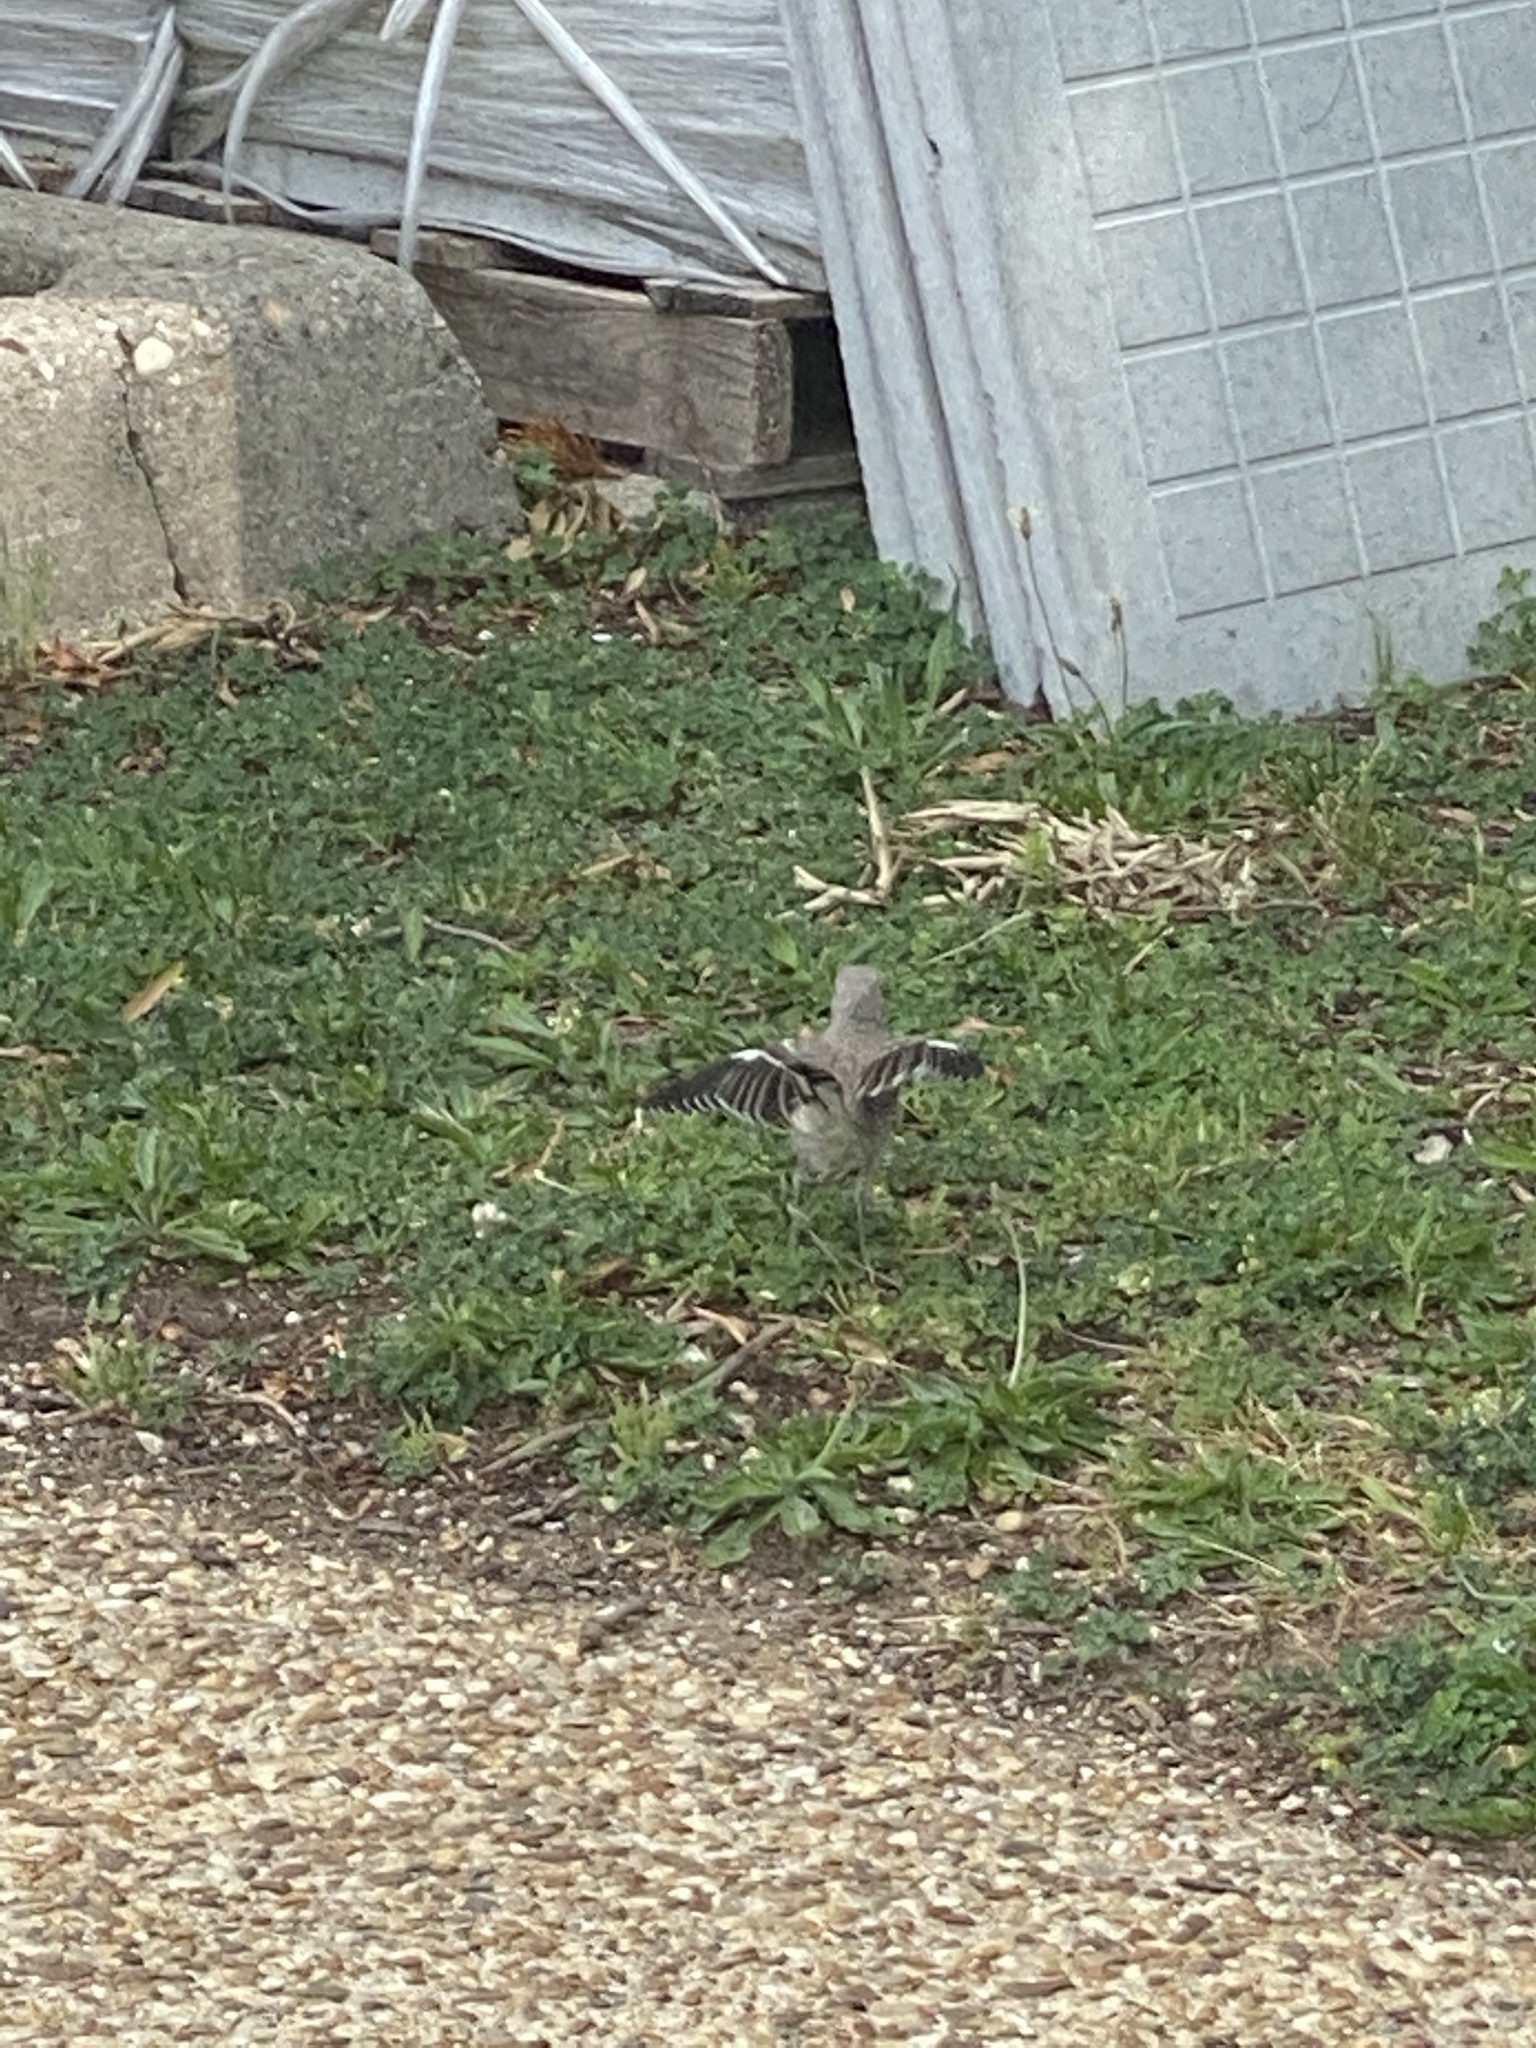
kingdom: Animalia
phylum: Chordata
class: Aves
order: Passeriformes
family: Mimidae
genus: Mimus
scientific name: Mimus polyglottos
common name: Northern mockingbird
